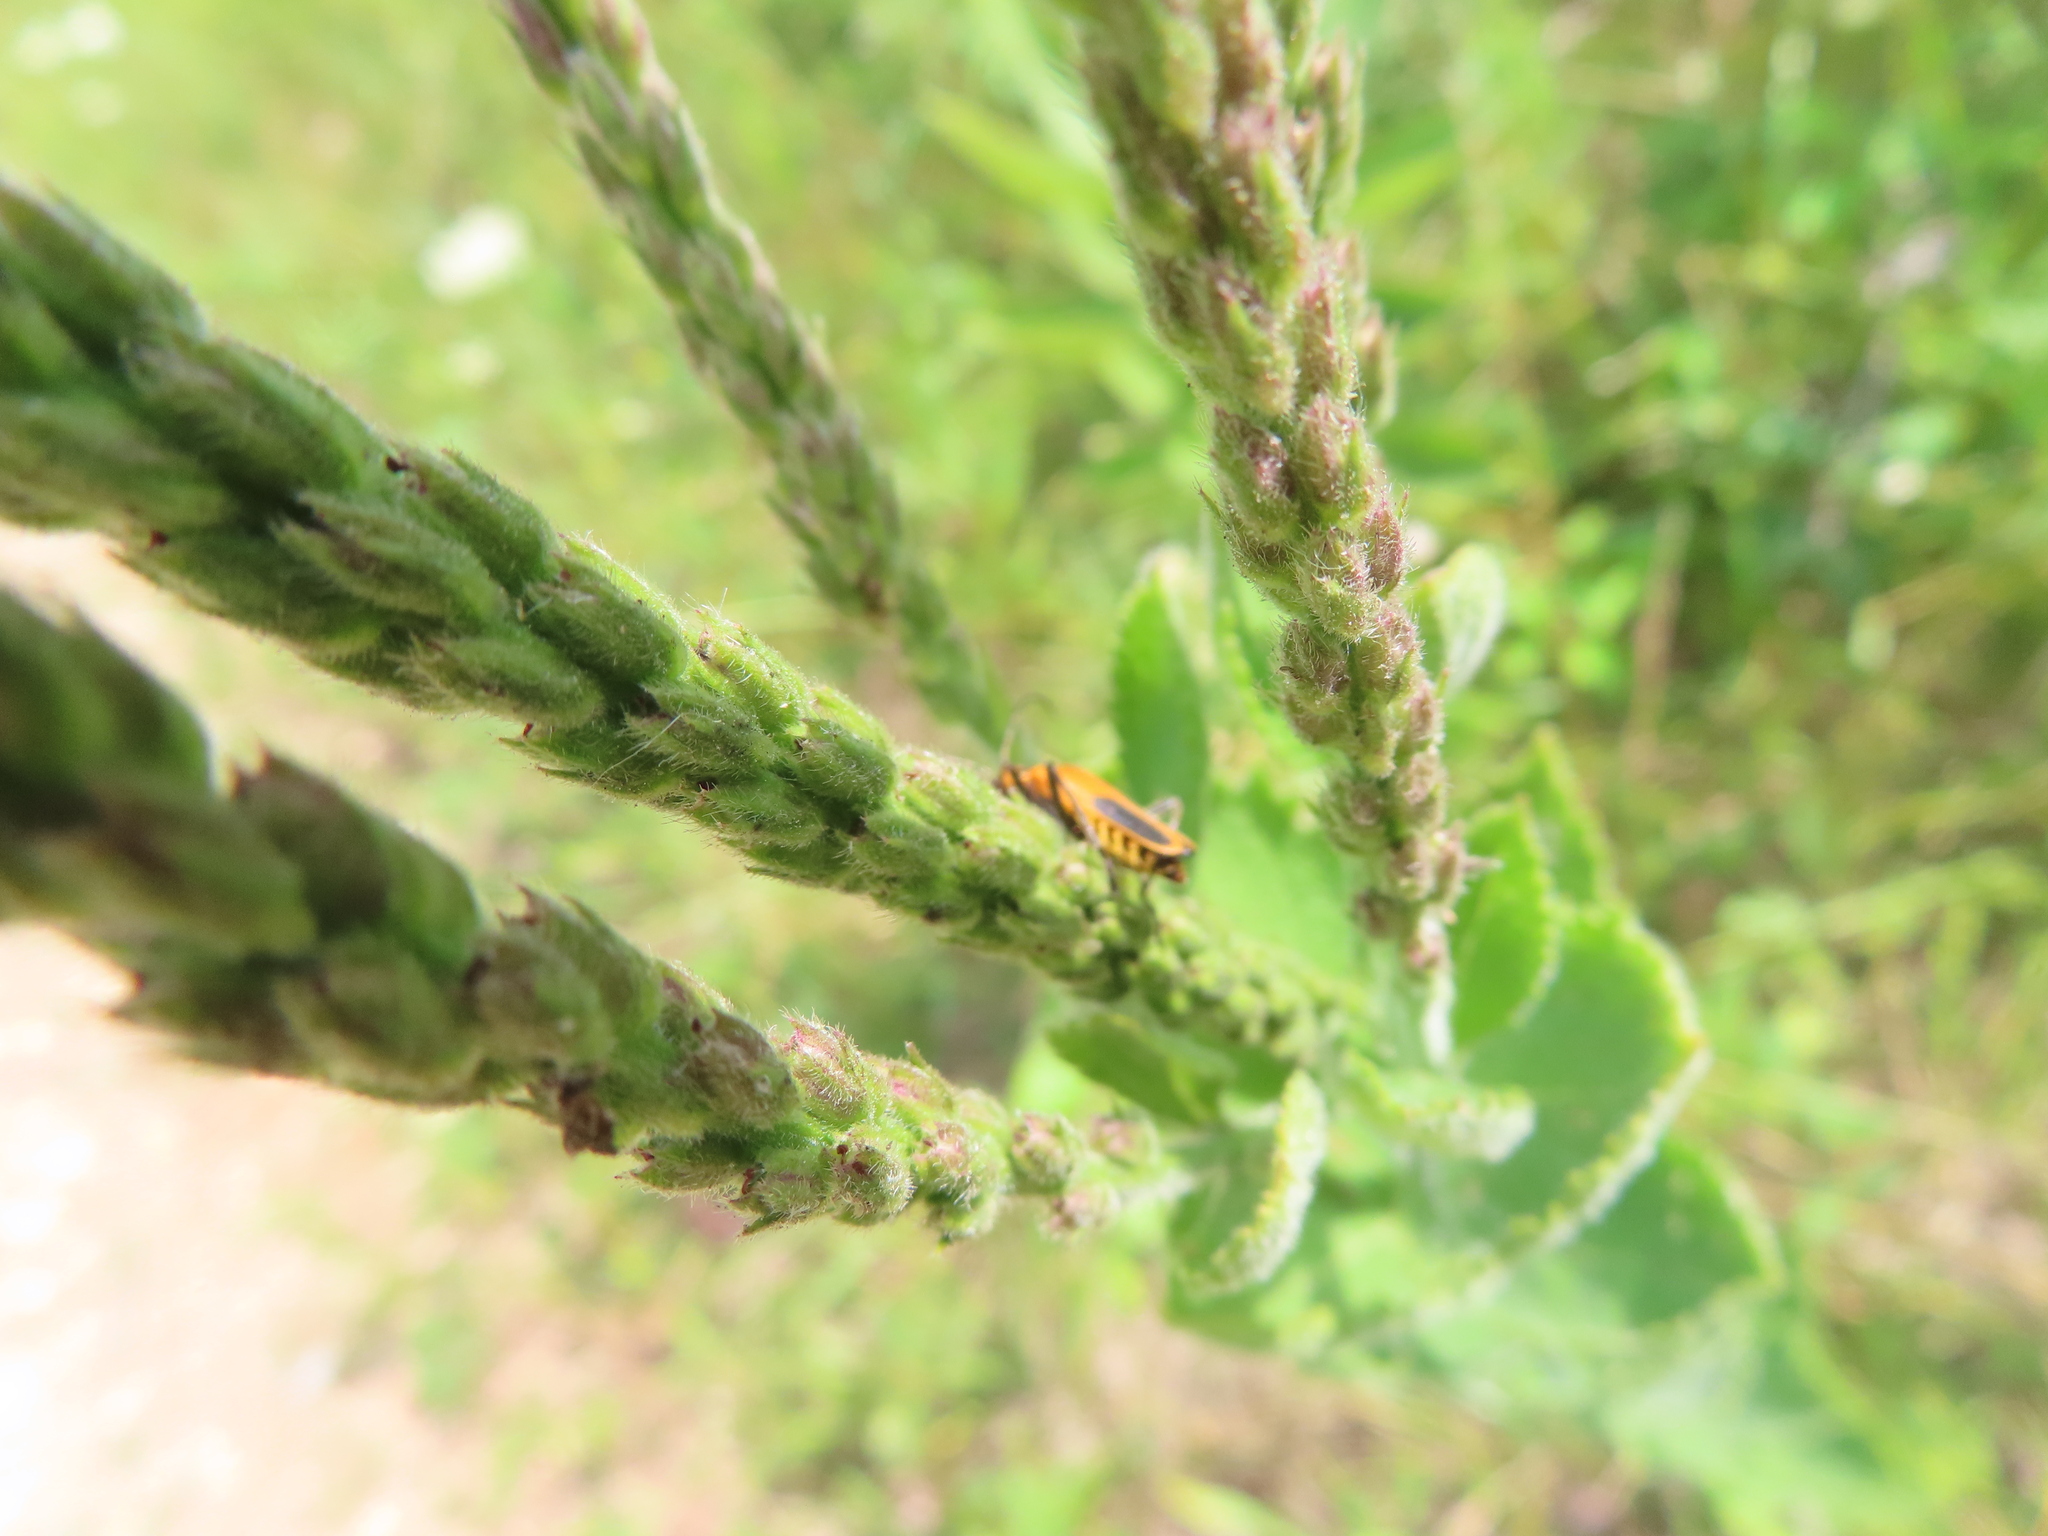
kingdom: Animalia
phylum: Arthropoda
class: Insecta
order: Coleoptera
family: Cantharidae
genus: Chauliognathus
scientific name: Chauliognathus pensylvanicus
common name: Goldenrod soldier beetle
